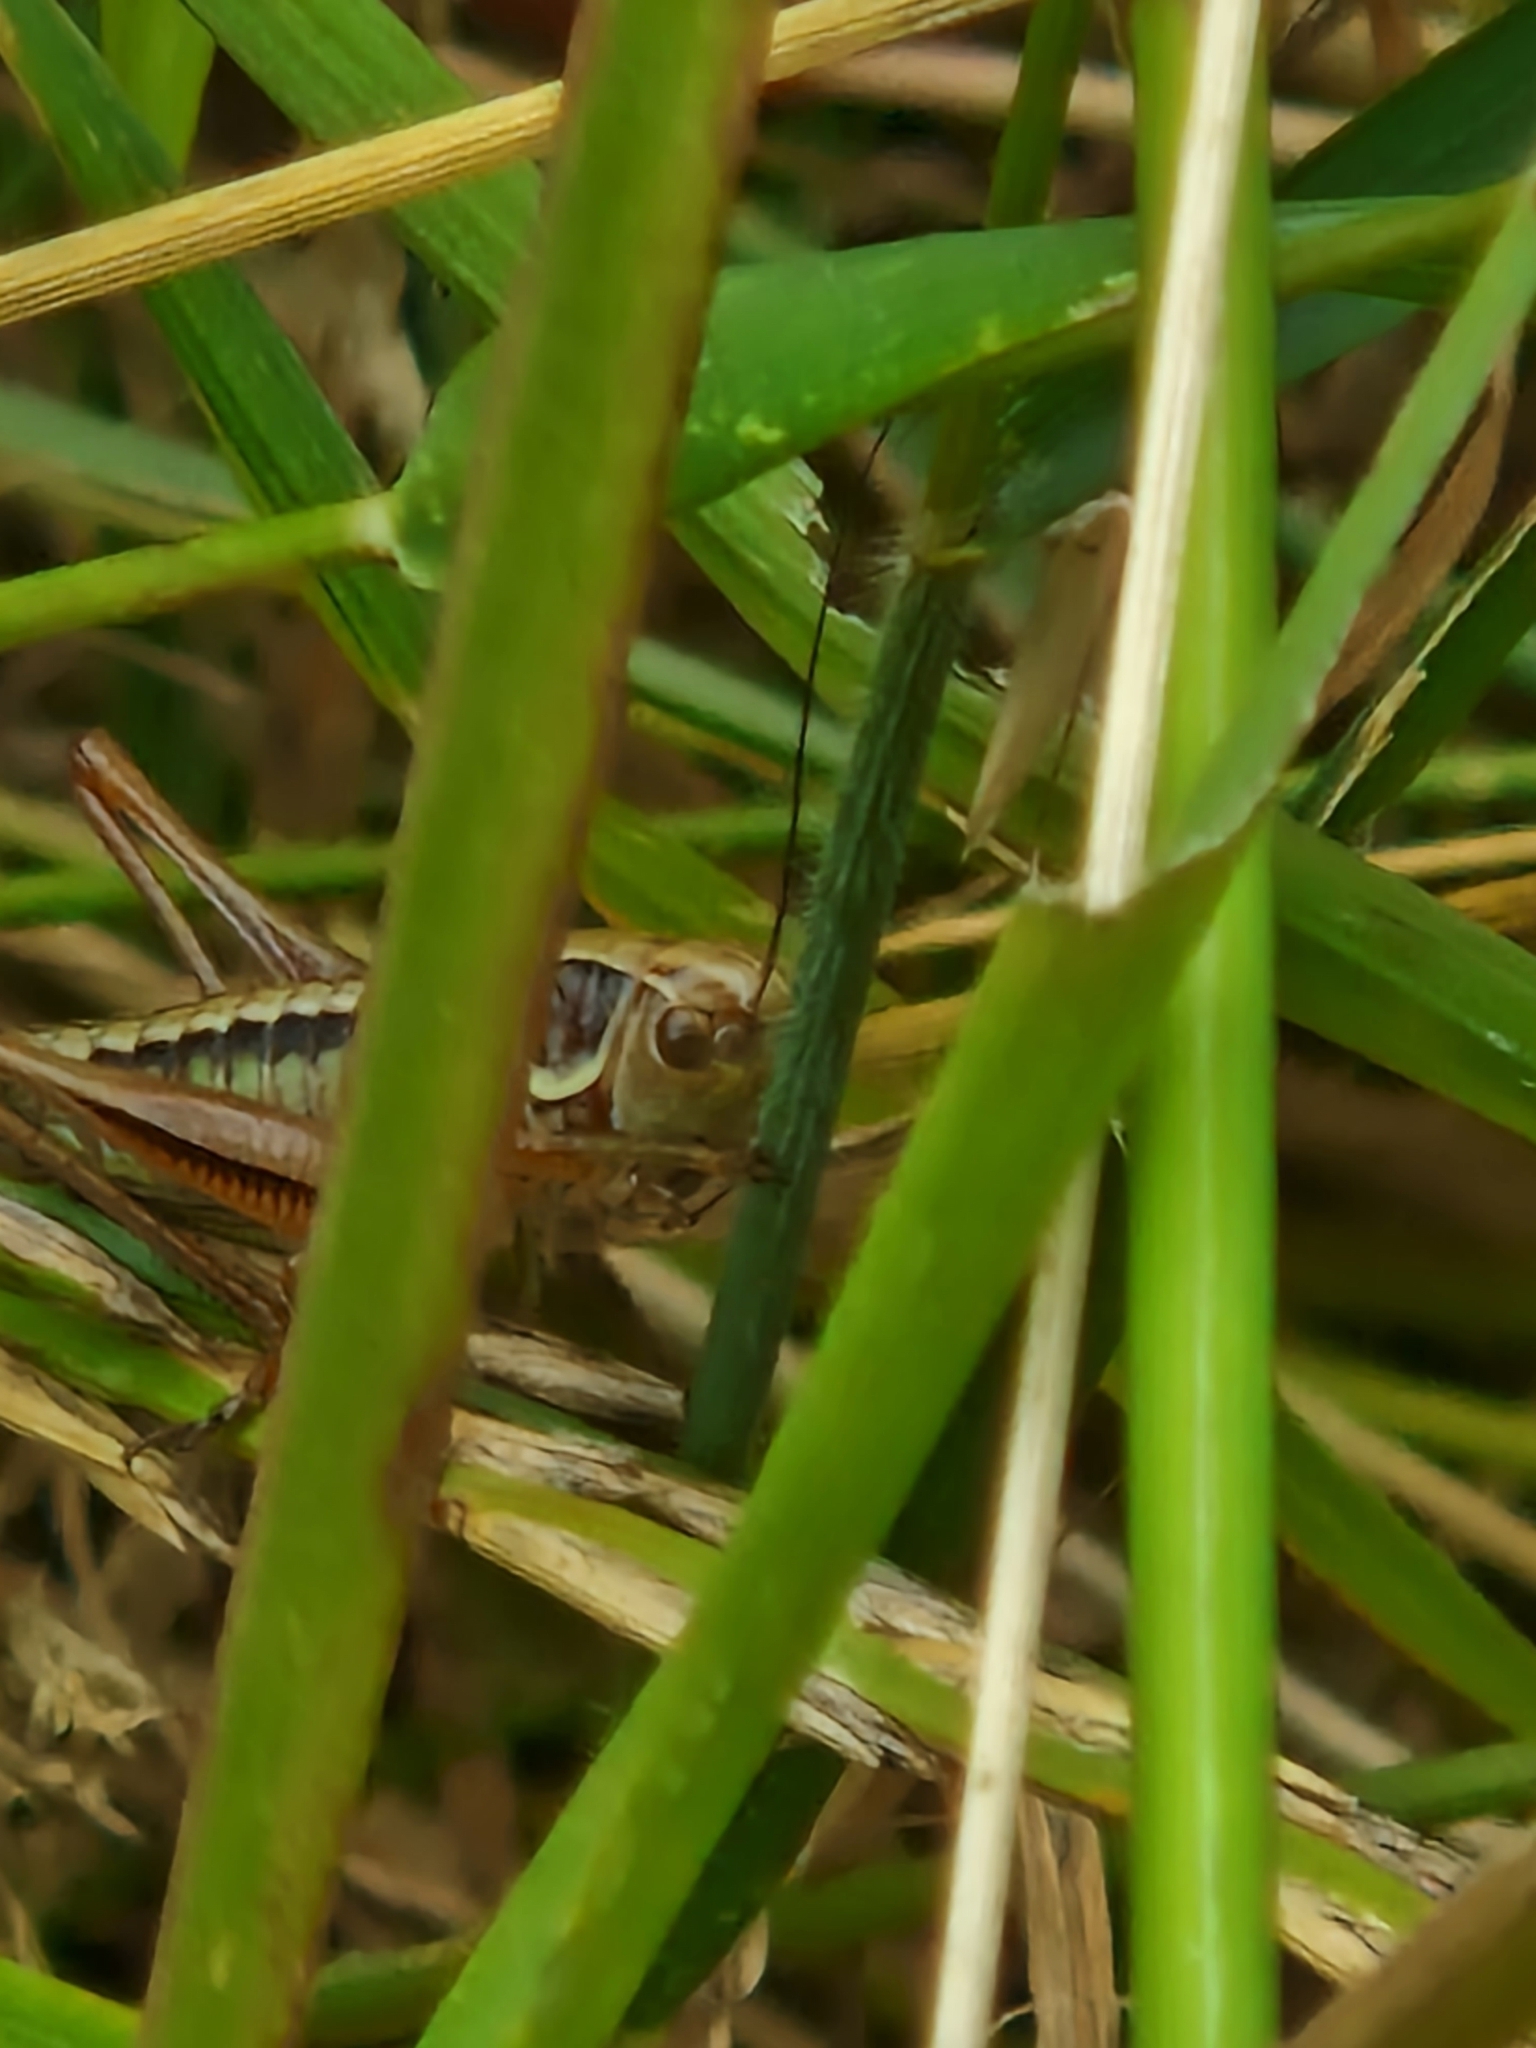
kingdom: Animalia
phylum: Arthropoda
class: Insecta
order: Orthoptera
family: Tettigoniidae
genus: Roeseliana
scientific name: Roeseliana roeselii
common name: Roesel's bush cricket
